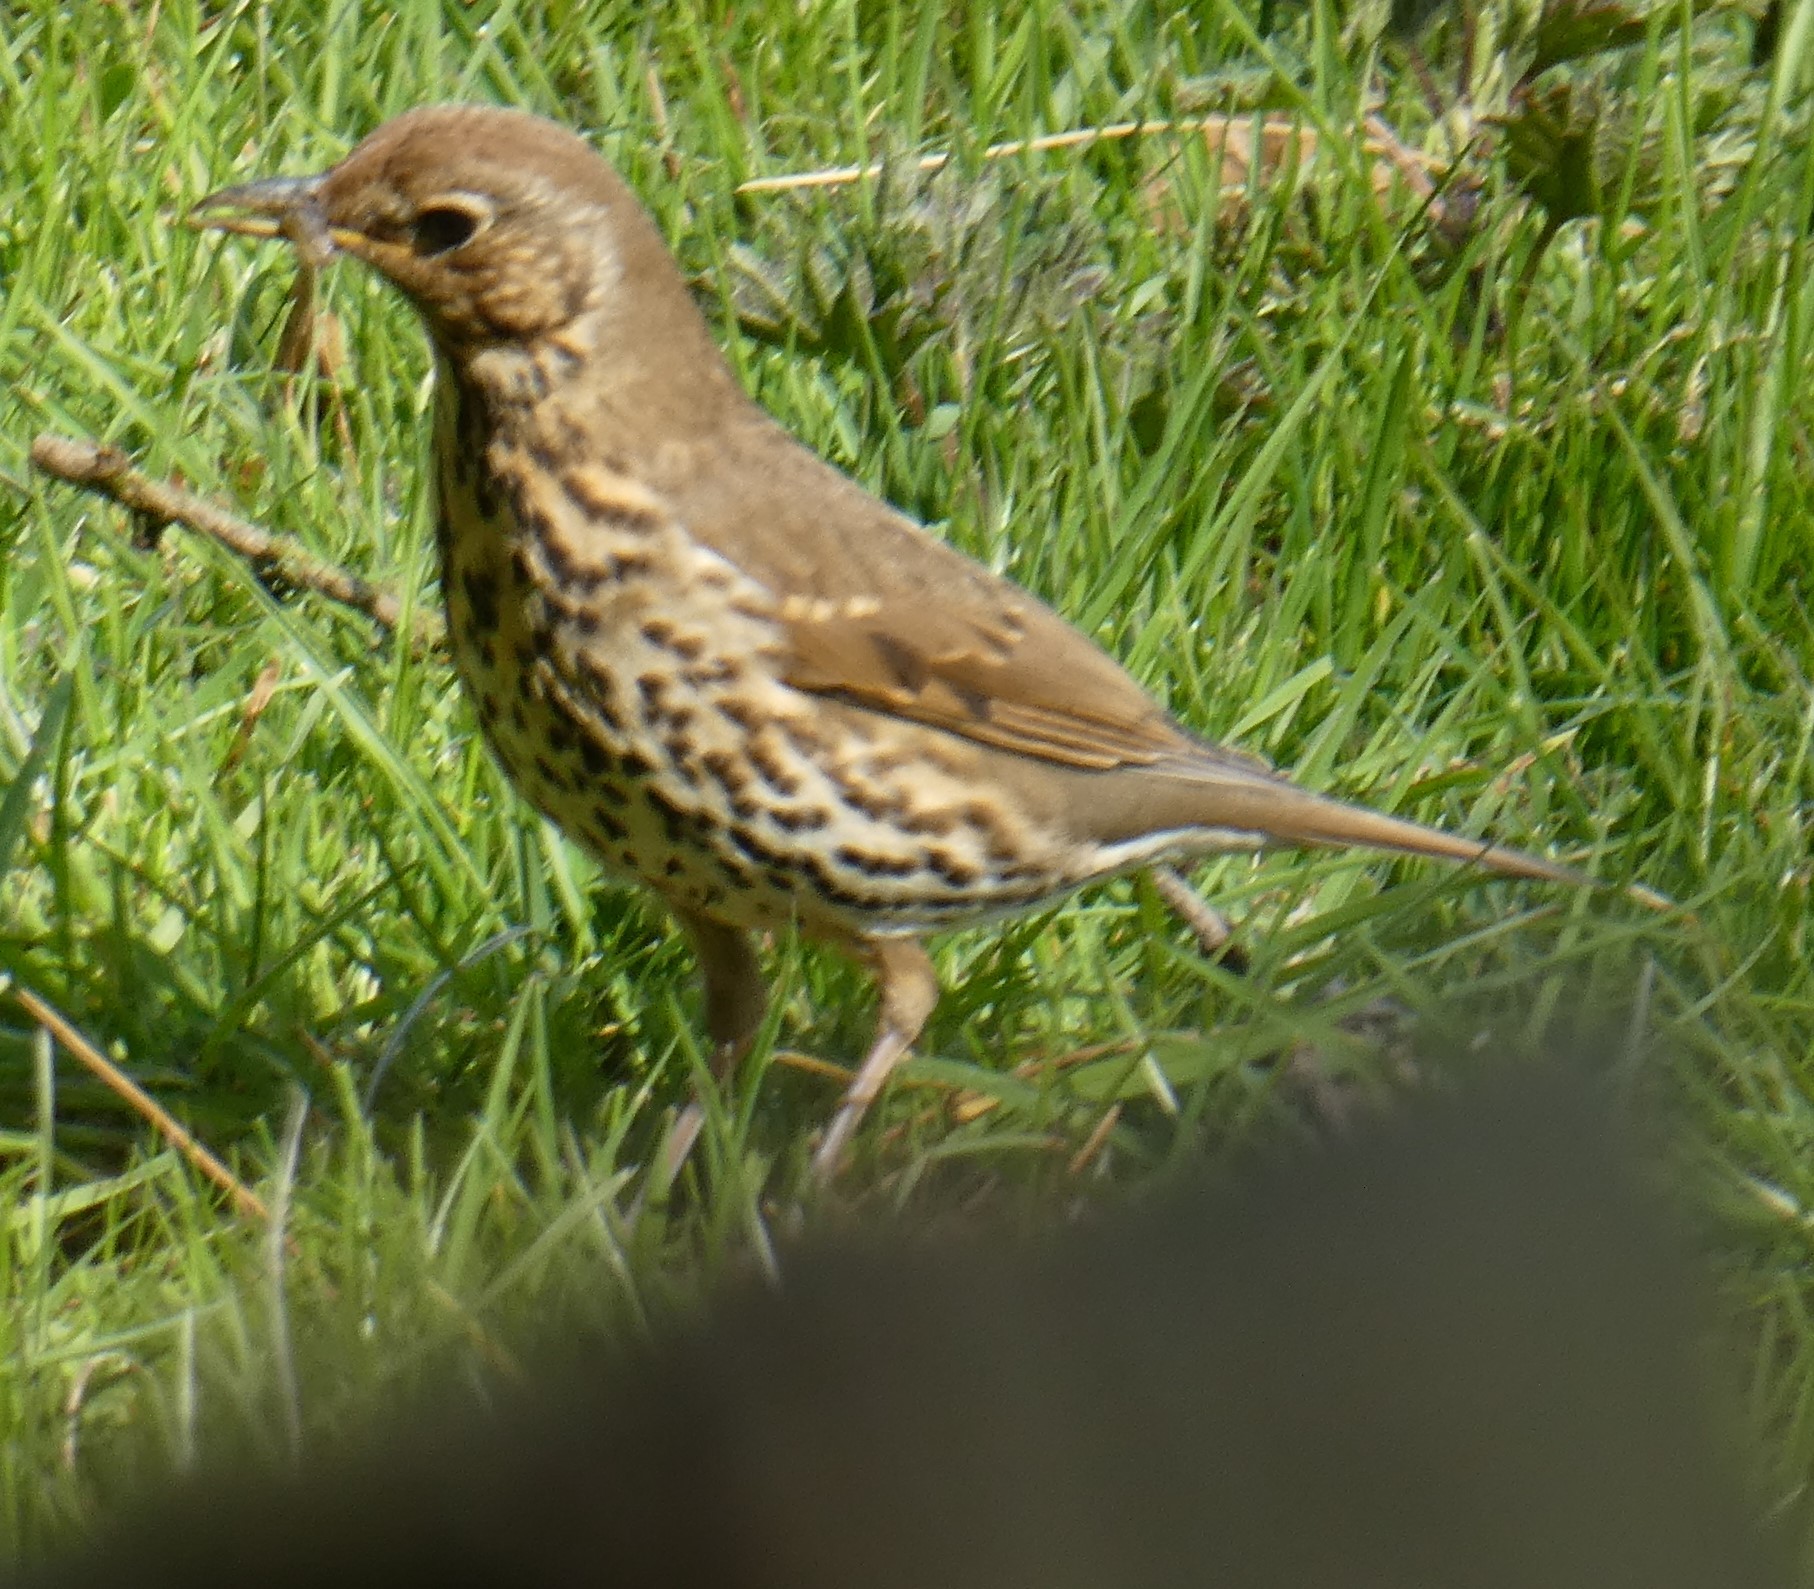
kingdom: Animalia
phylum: Chordata
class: Aves
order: Passeriformes
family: Turdidae
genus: Turdus
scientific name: Turdus philomelos
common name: Song thrush
